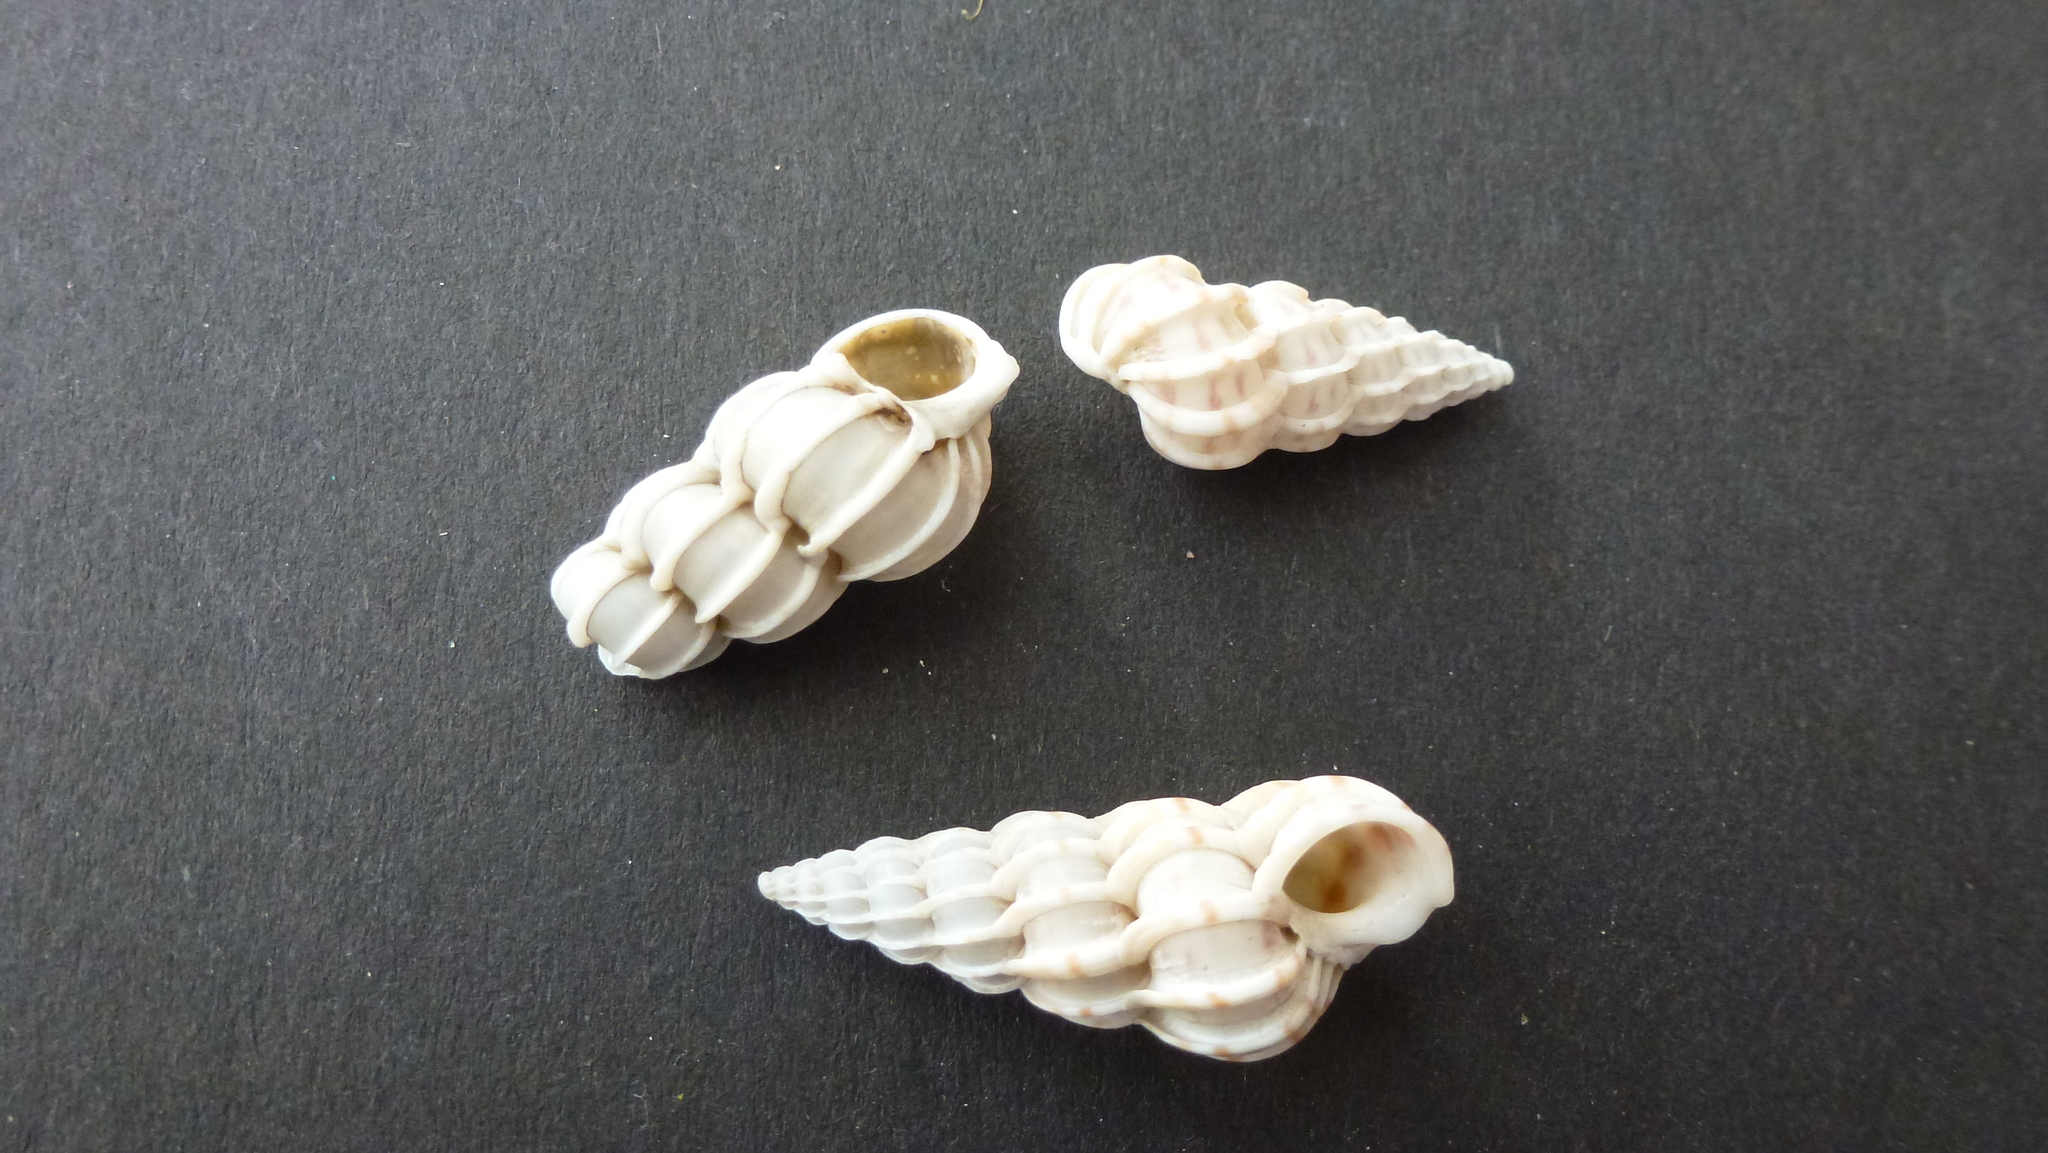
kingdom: Animalia
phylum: Mollusca
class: Gastropoda
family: Epitoniidae
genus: Epitonium
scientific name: Epitonium clathrus
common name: Common wentletrap
